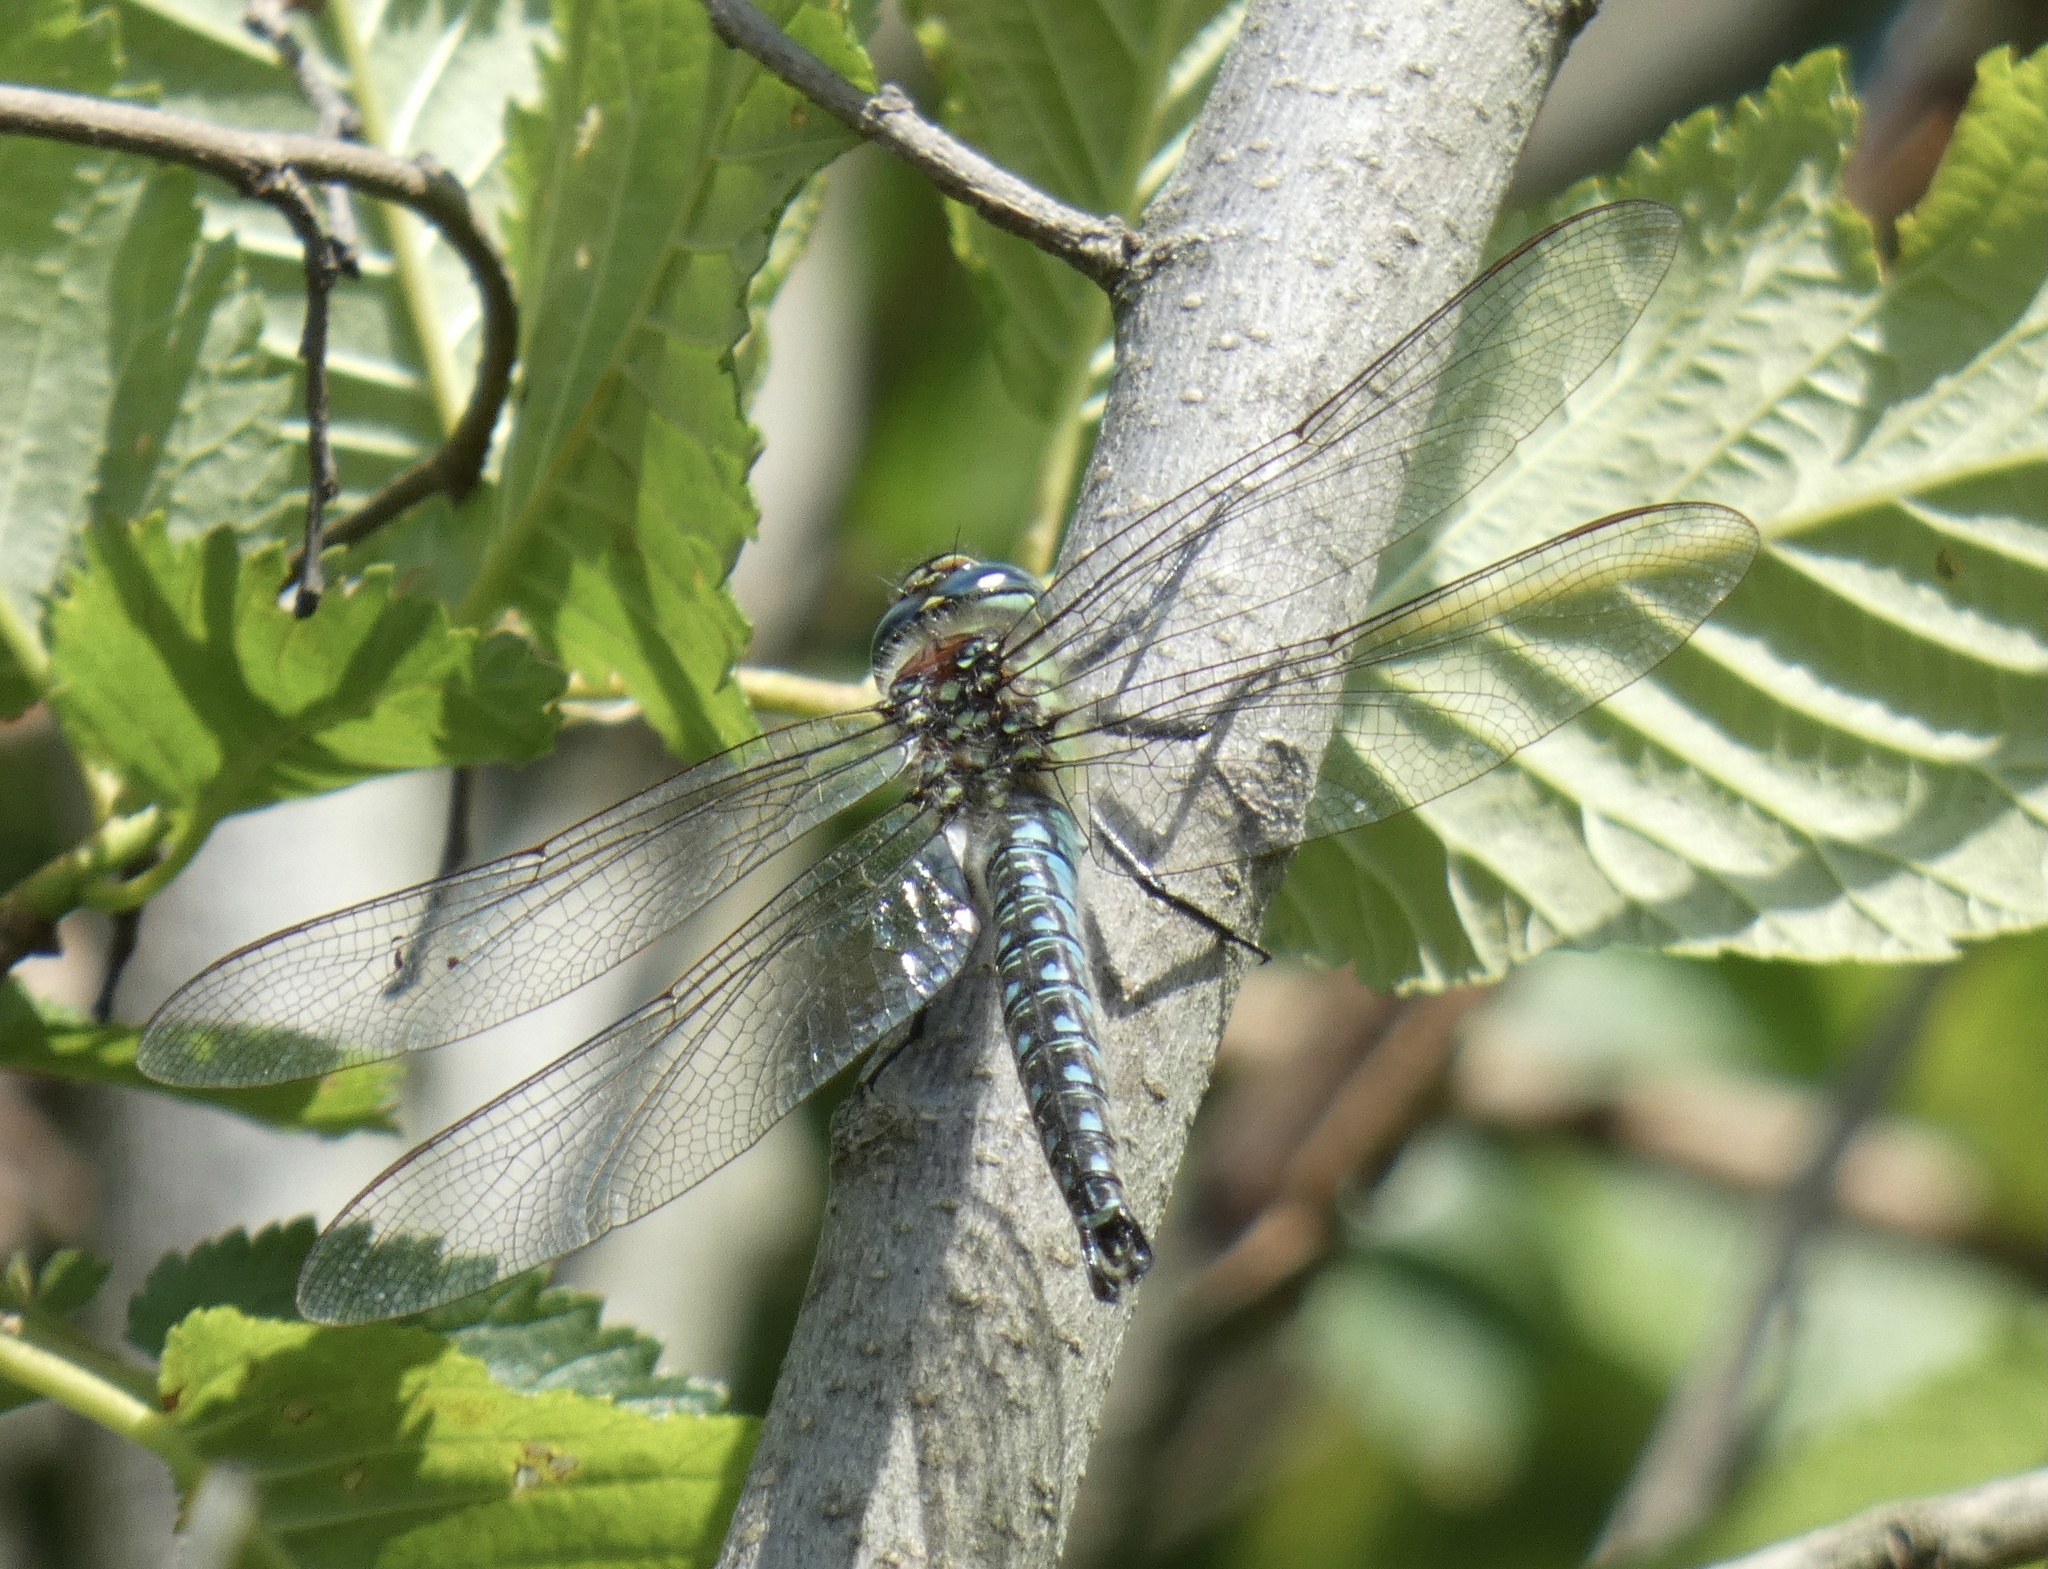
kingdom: Animalia
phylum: Arthropoda
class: Insecta
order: Odonata
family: Aeshnidae
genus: Brachytron
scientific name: Brachytron pratense
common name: Hairy hawker
